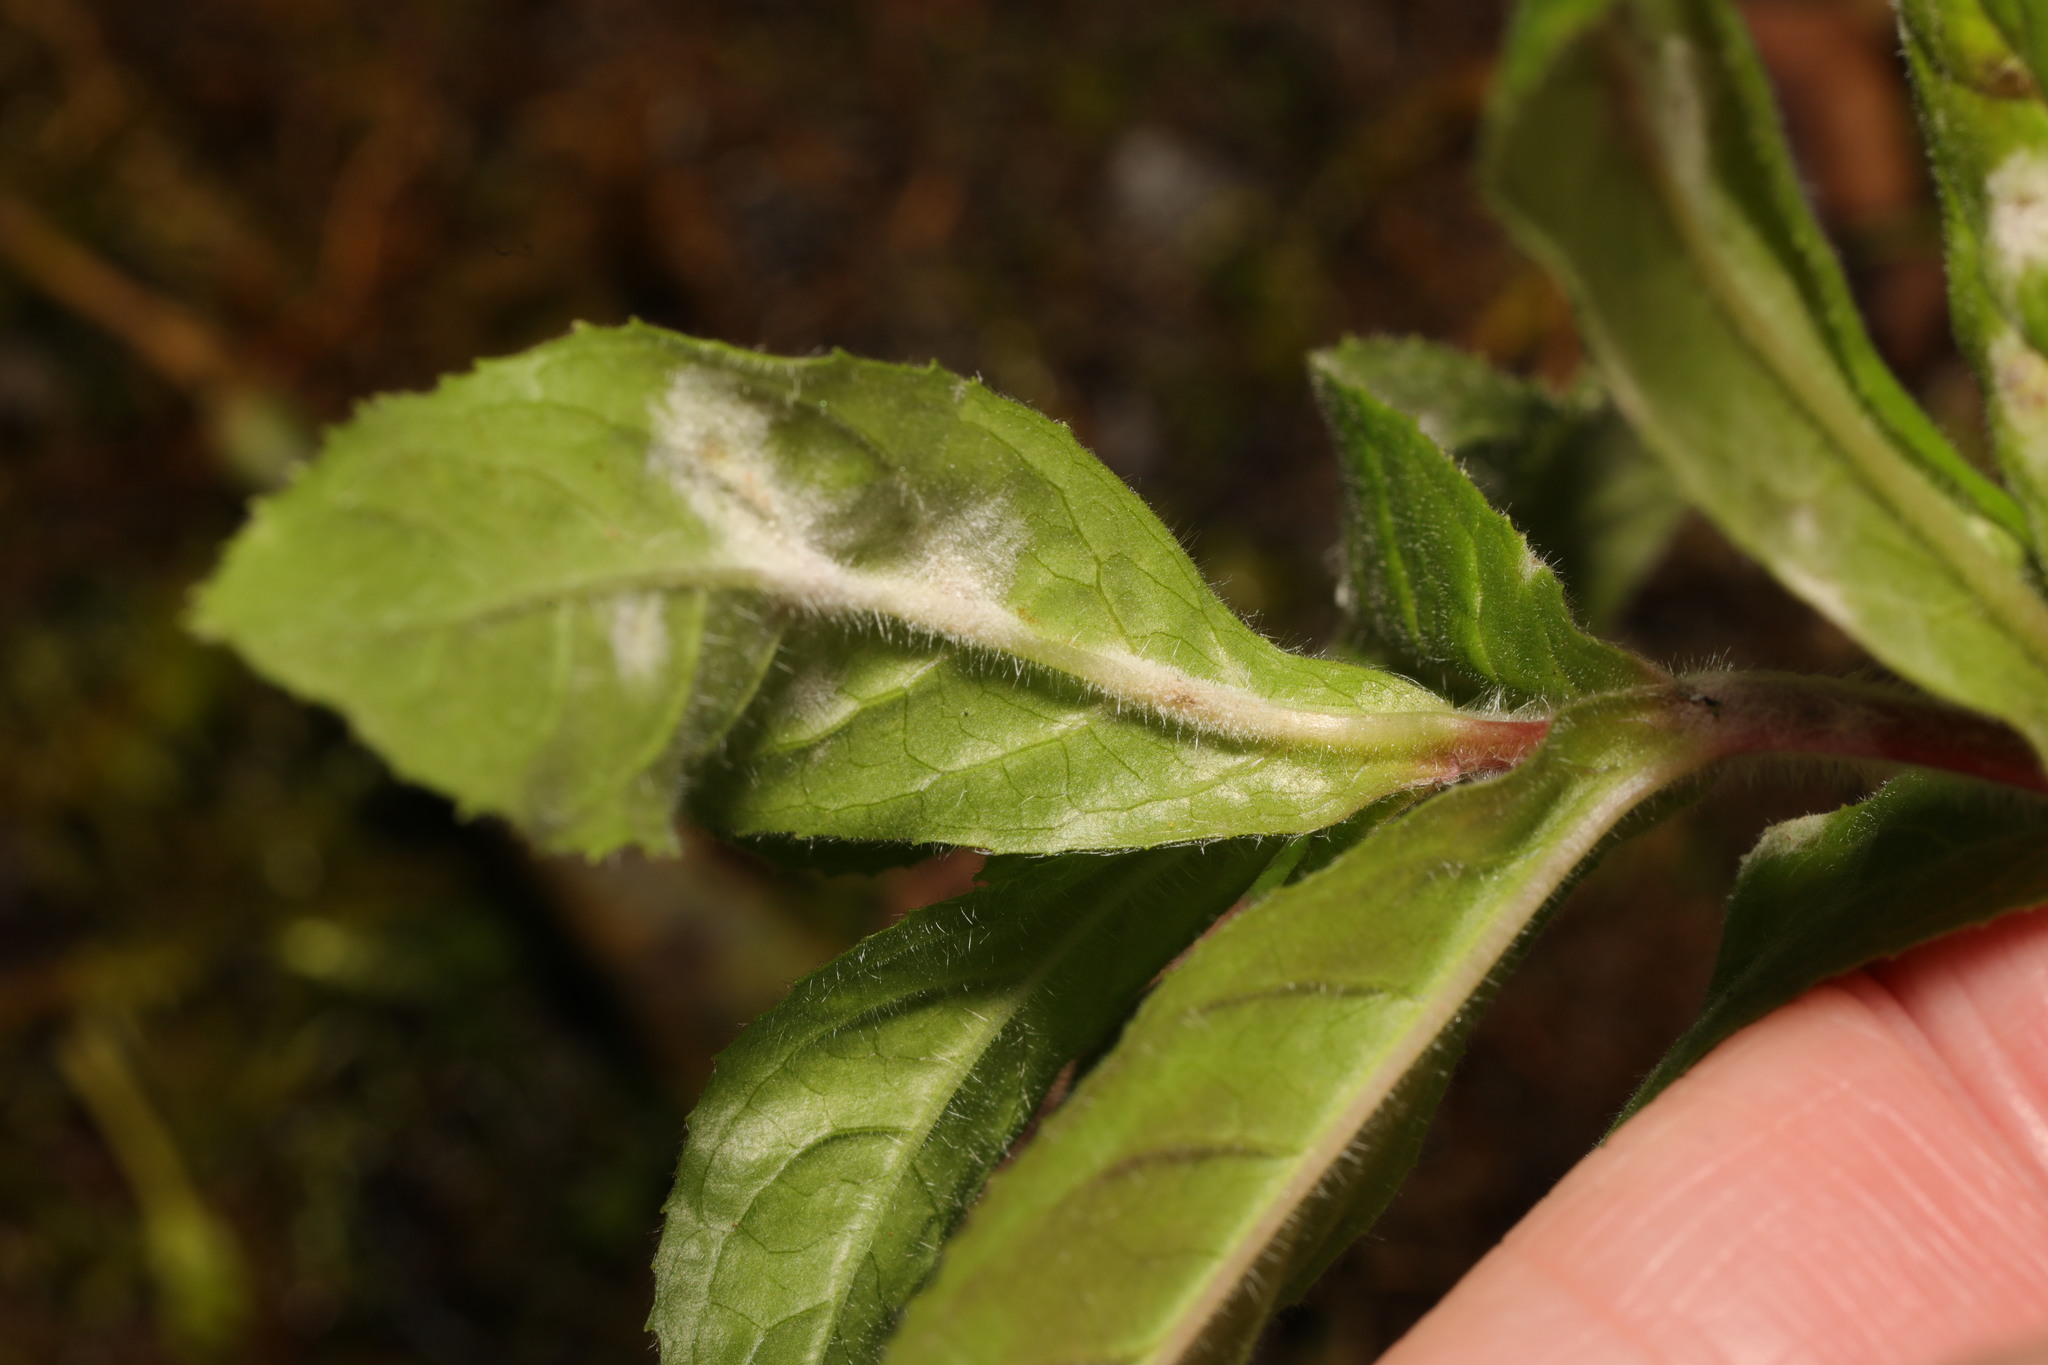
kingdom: Fungi
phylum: Ascomycota
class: Leotiomycetes
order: Helotiales
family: Erysiphaceae
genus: Podosphaera
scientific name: Podosphaera epilobii
